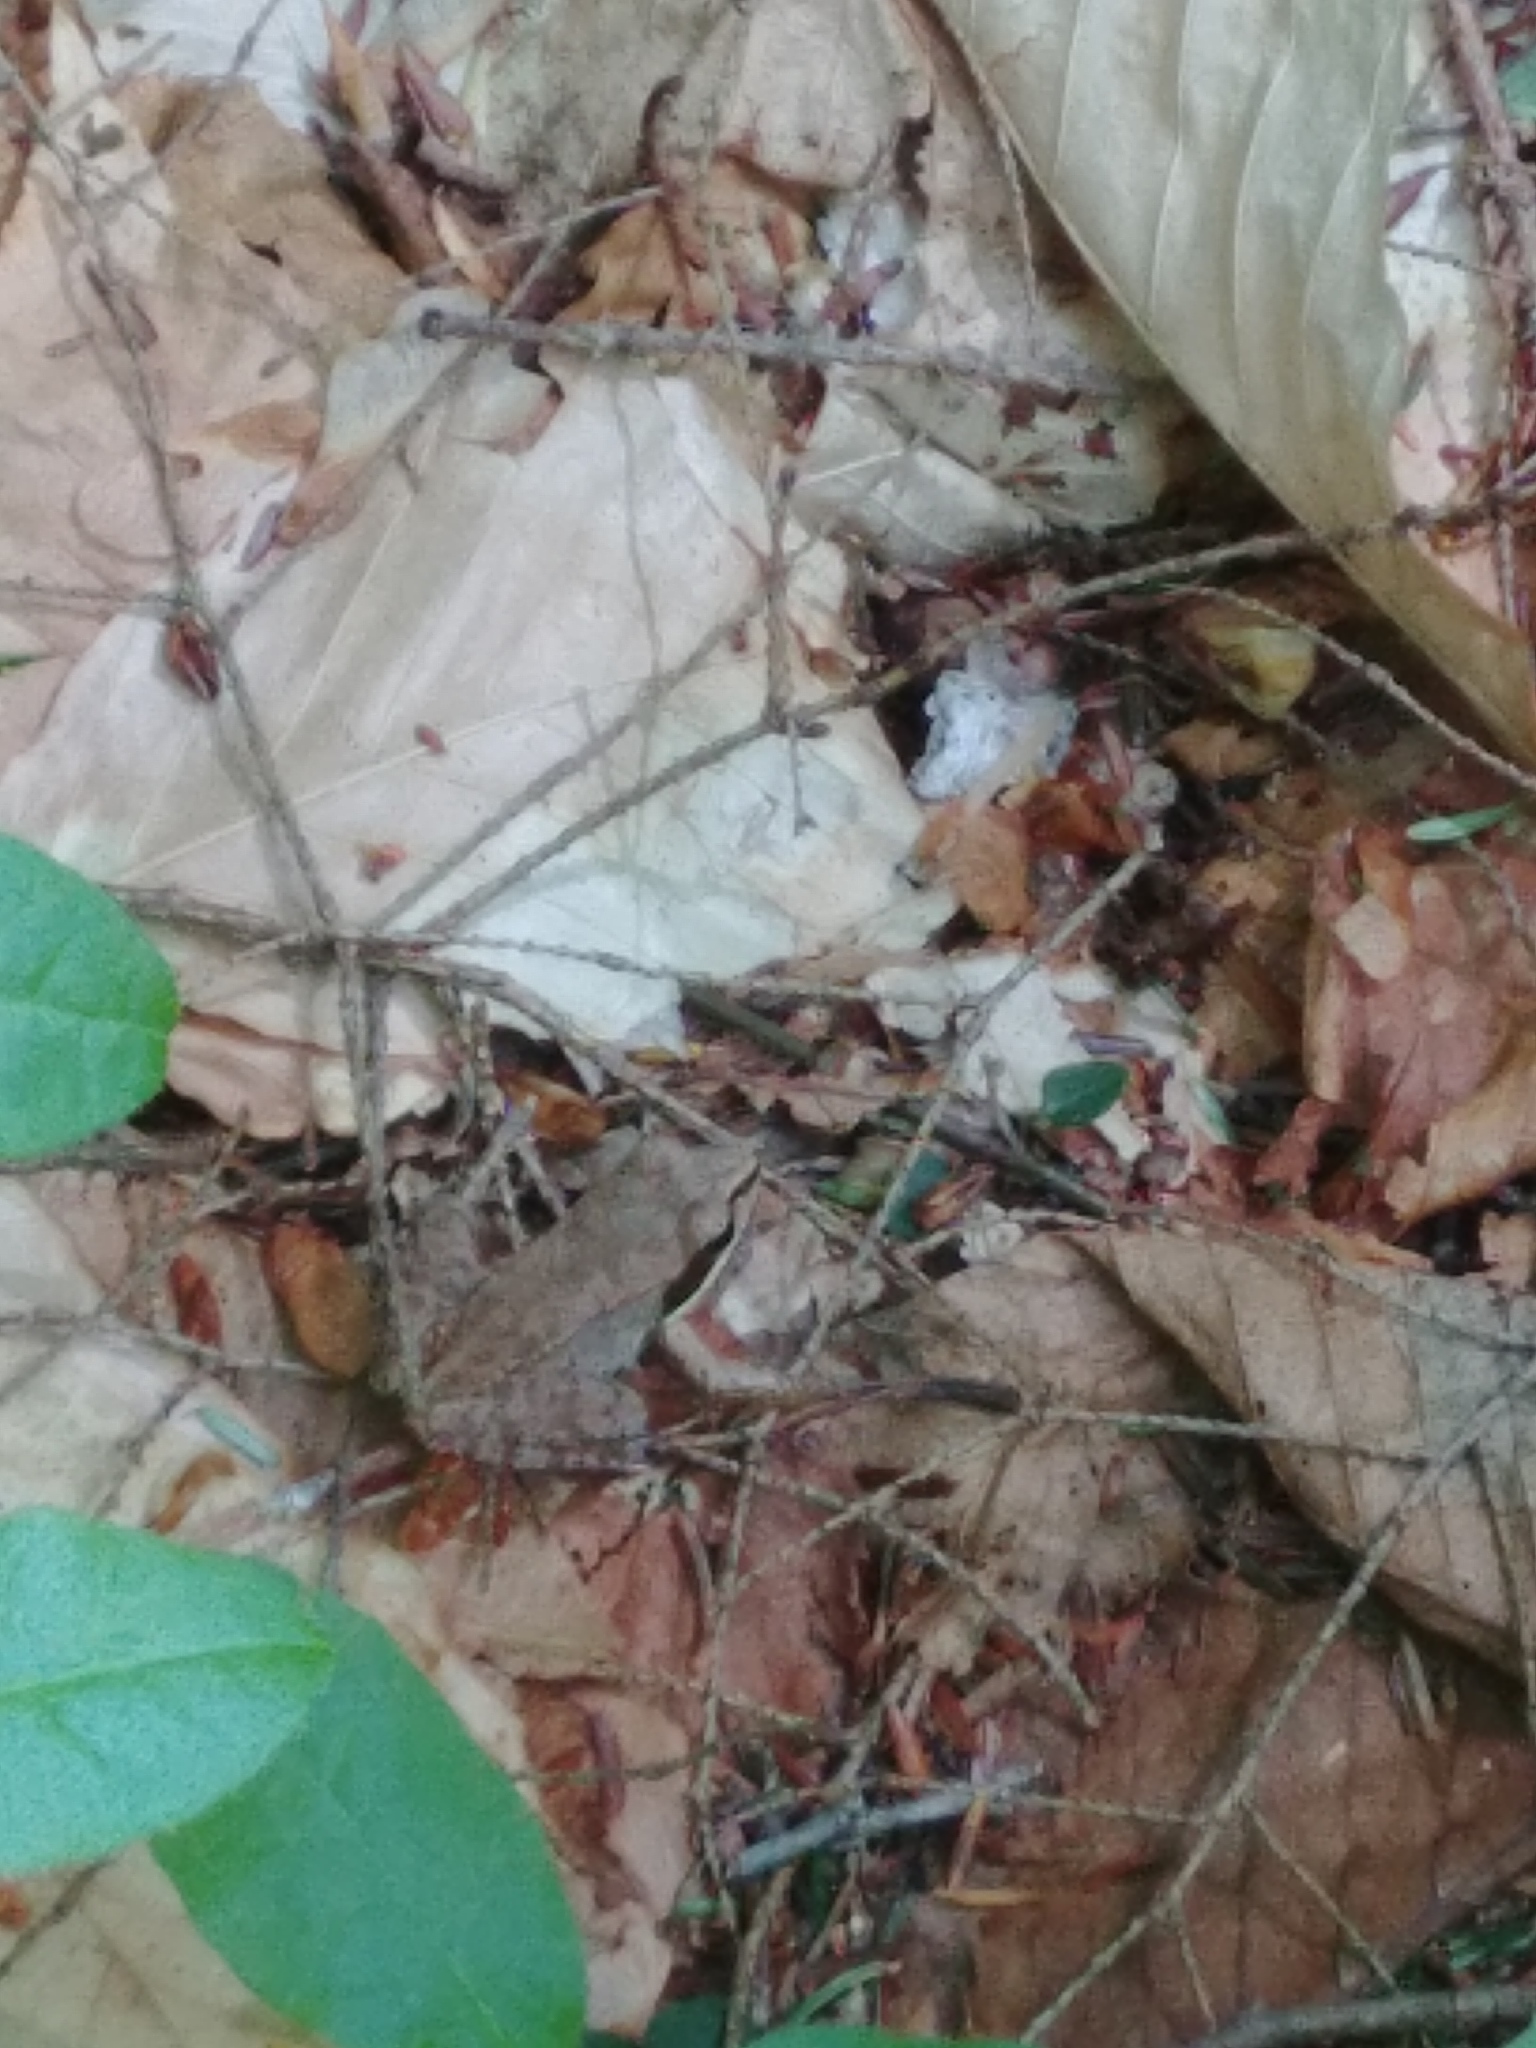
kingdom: Animalia
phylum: Chordata
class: Amphibia
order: Anura
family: Ranidae
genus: Lithobates
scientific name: Lithobates sylvaticus
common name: Wood frog
